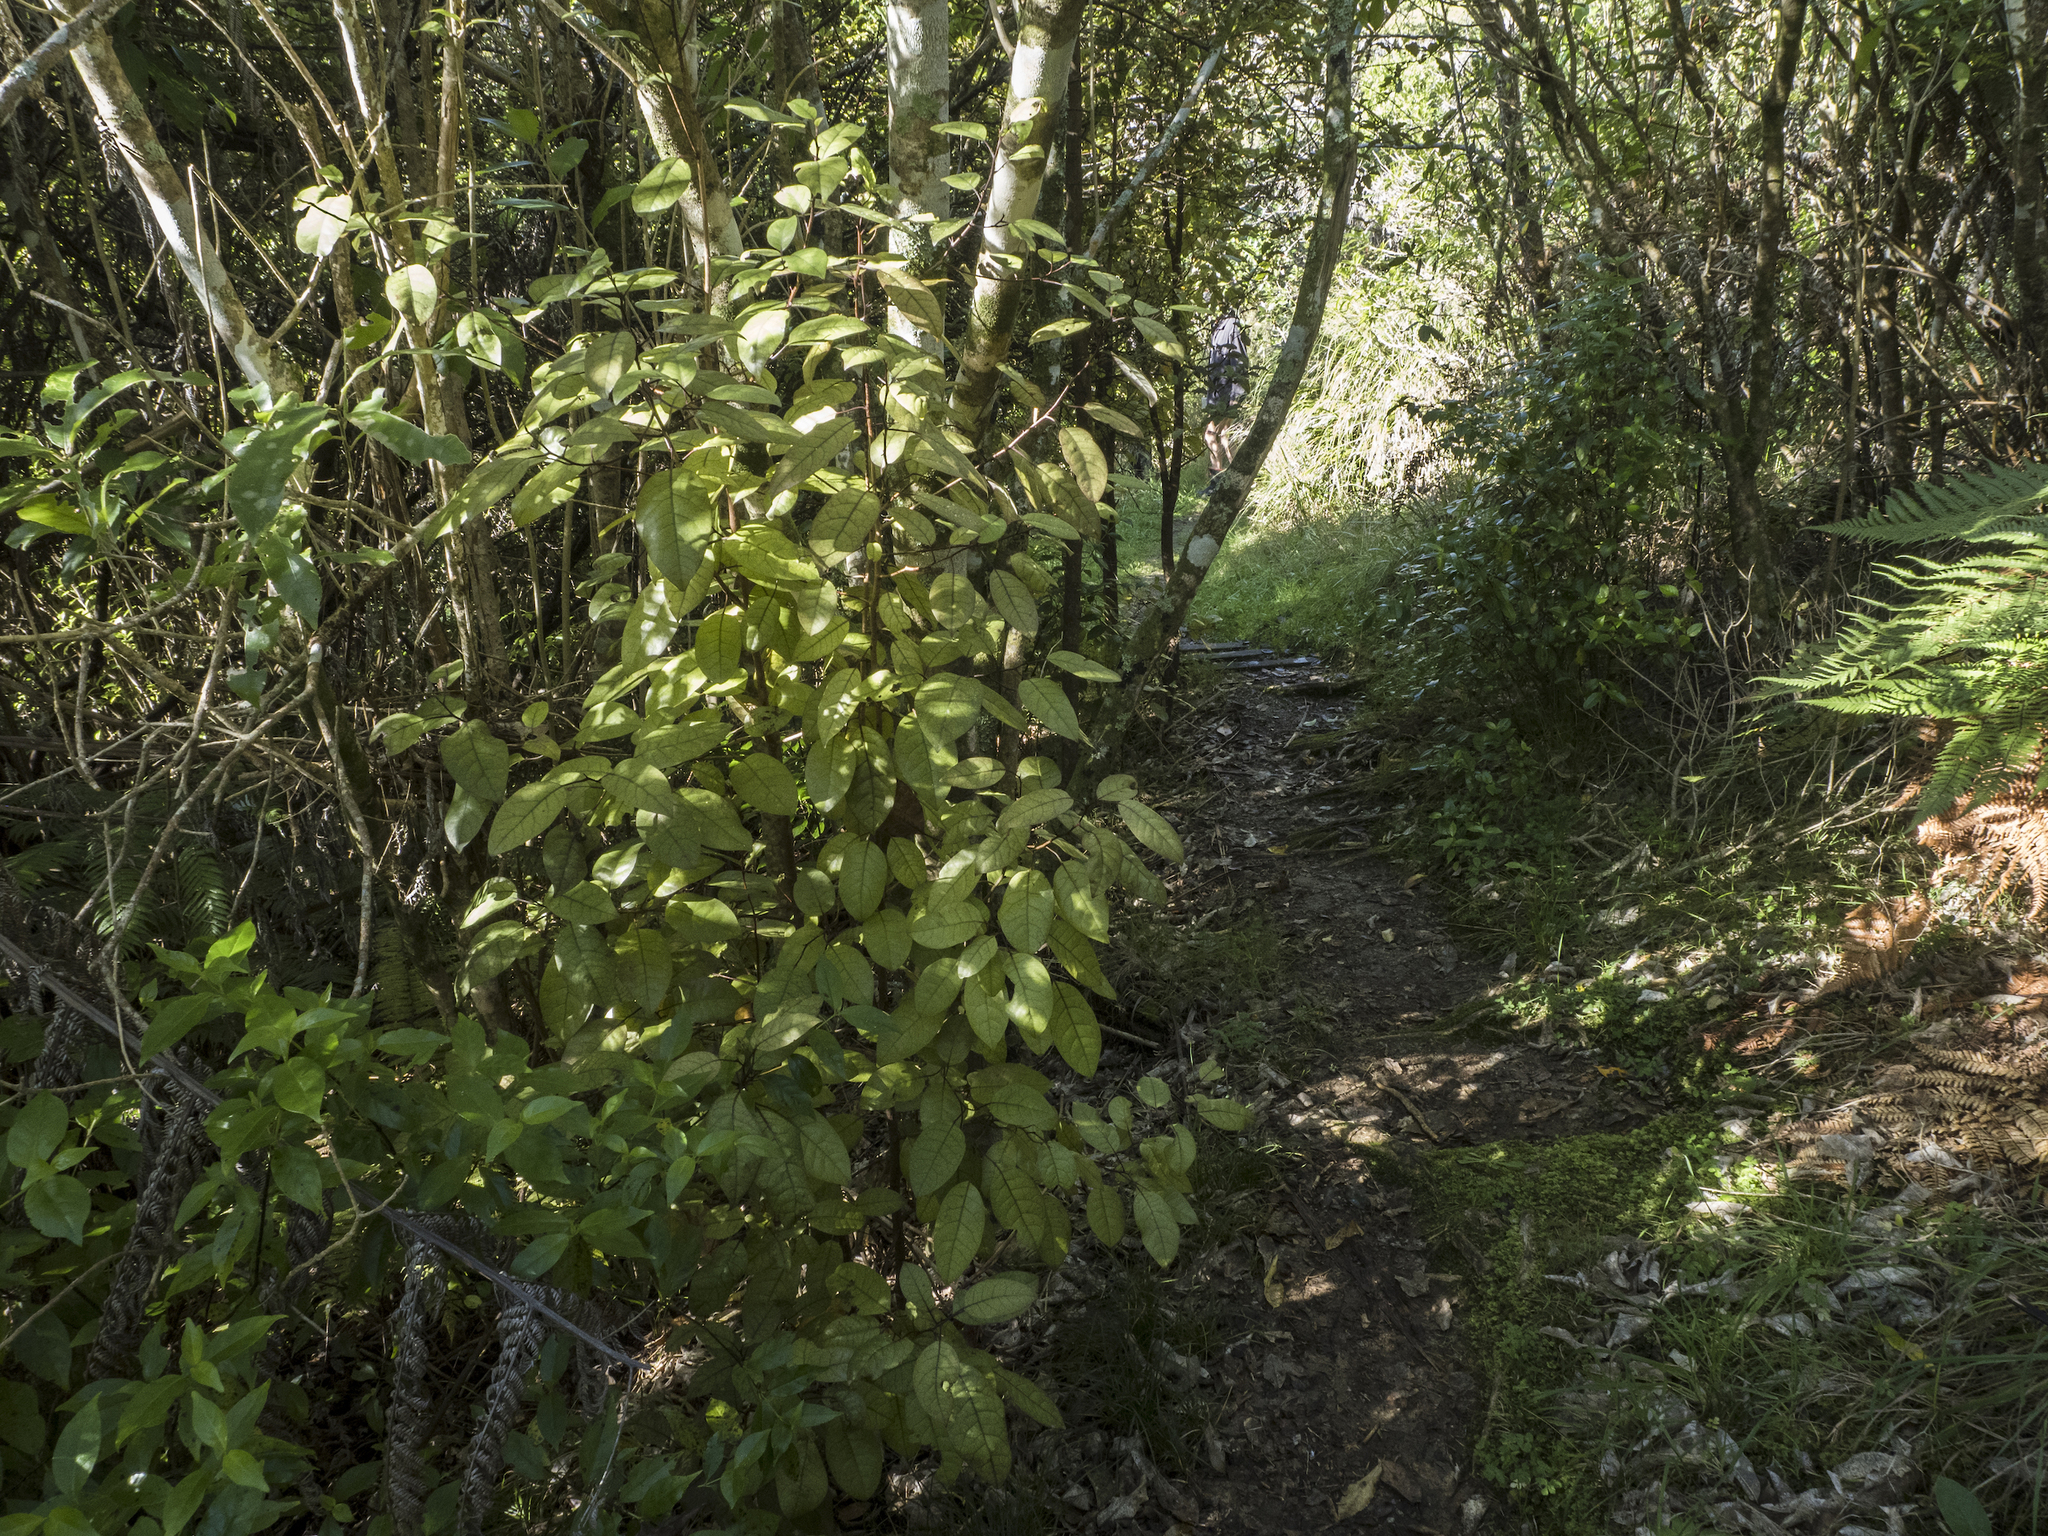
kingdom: Plantae
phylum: Tracheophyta
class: Magnoliopsida
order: Laurales
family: Lauraceae
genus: Litsea
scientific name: Litsea calicaris
